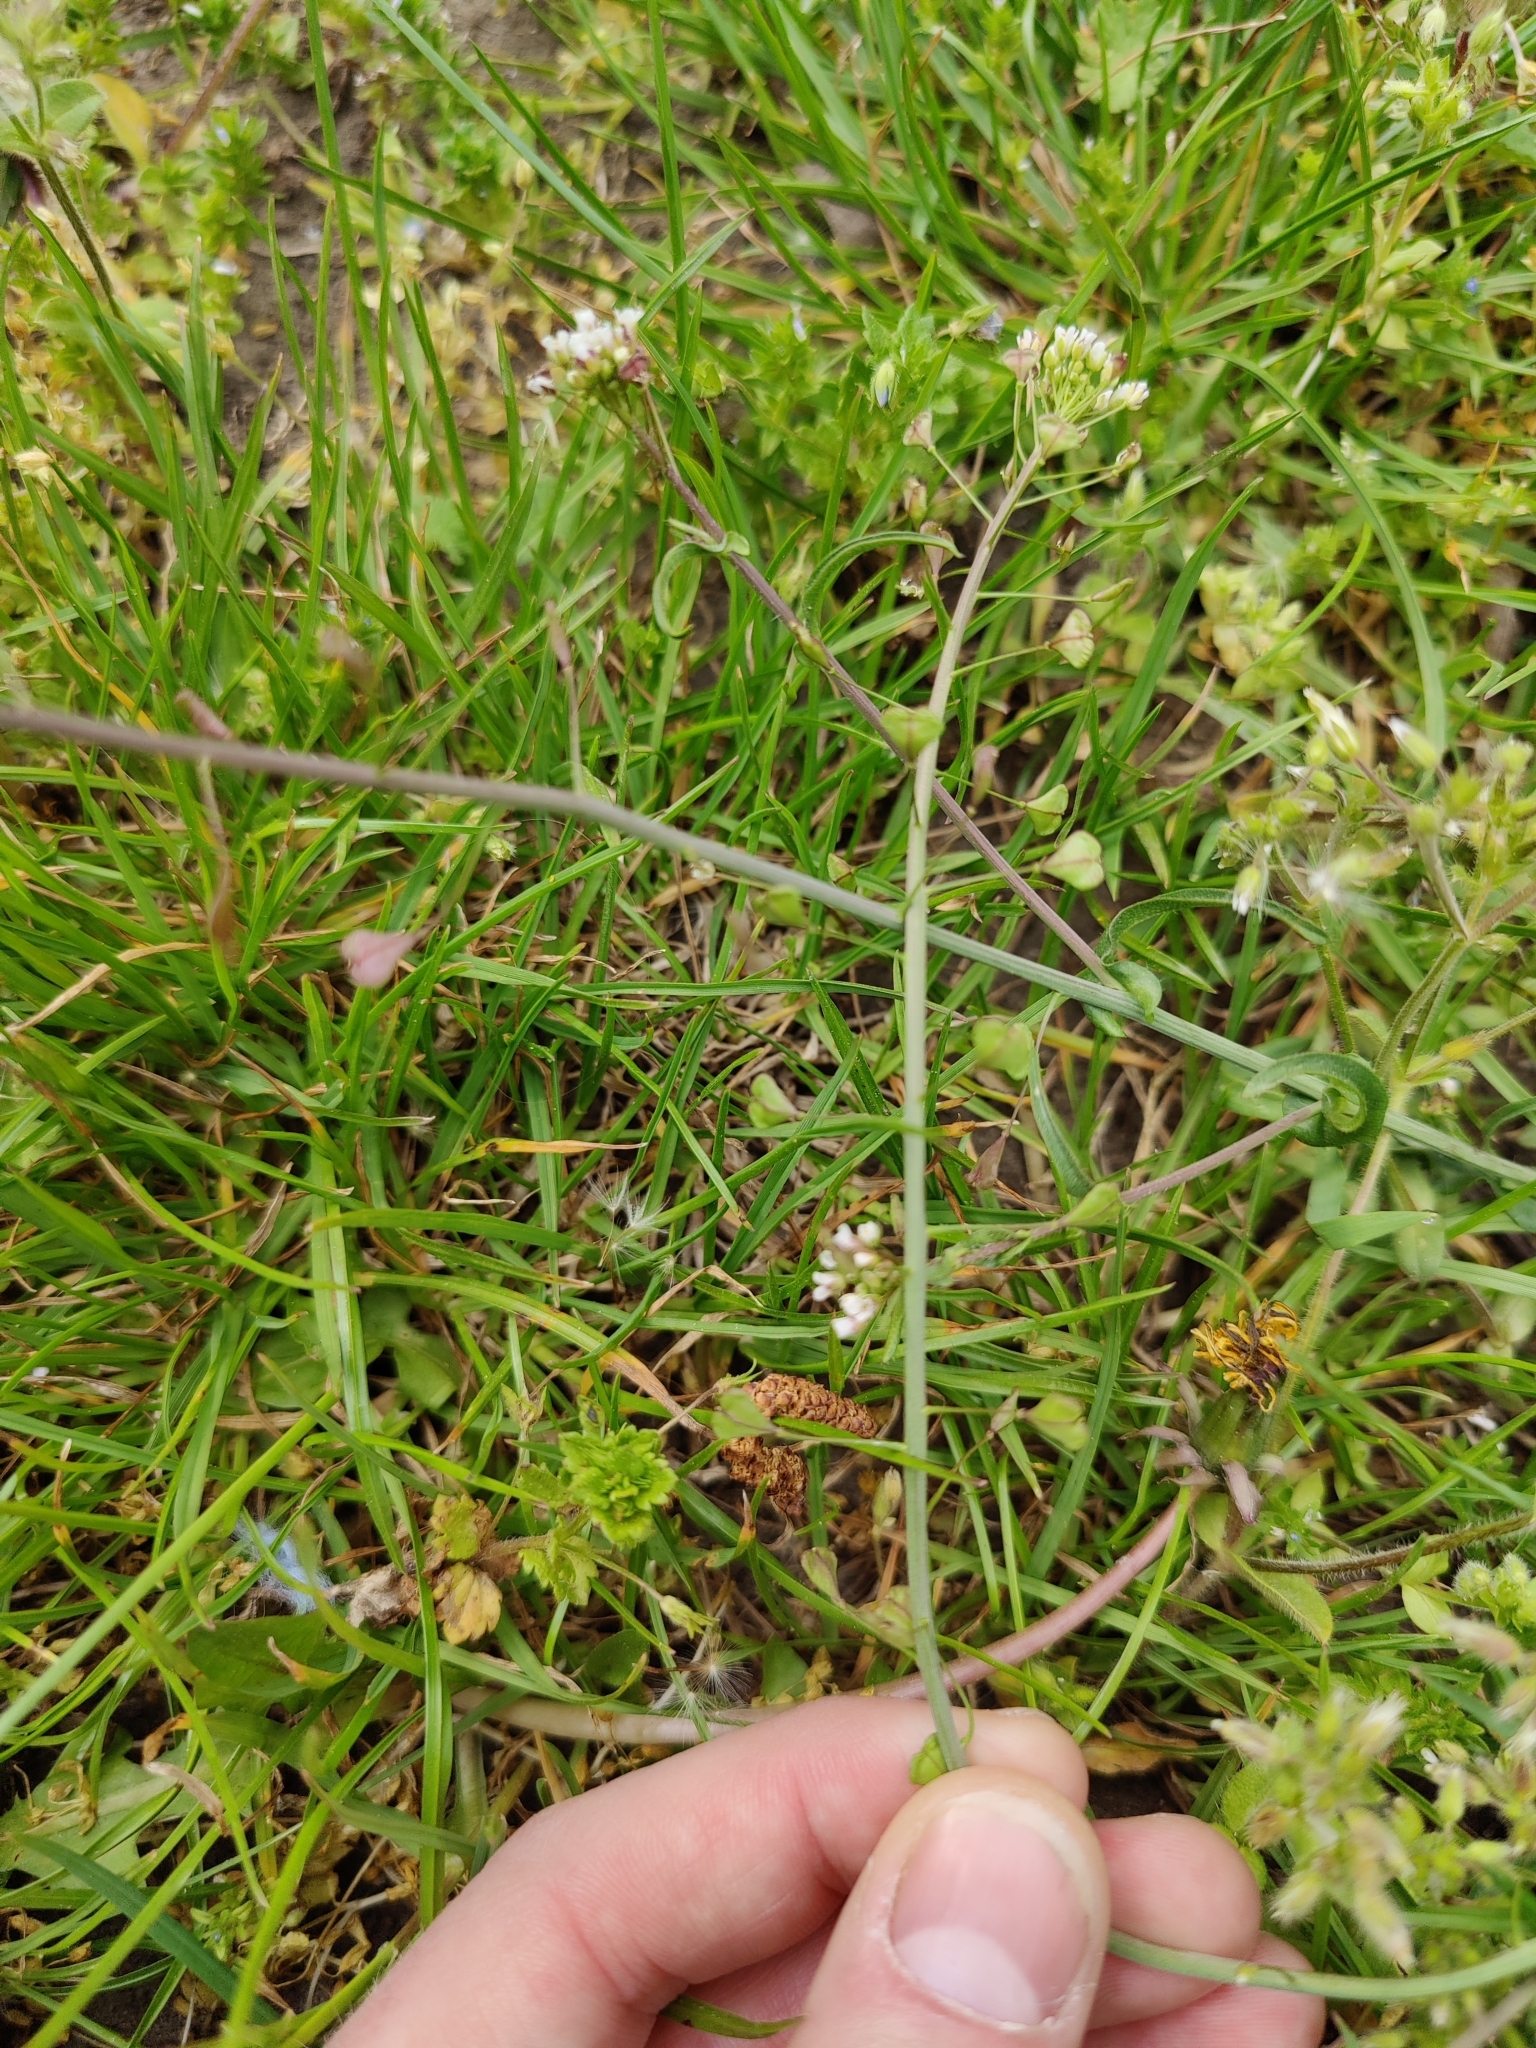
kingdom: Plantae
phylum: Tracheophyta
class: Magnoliopsida
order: Brassicales
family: Brassicaceae
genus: Capsella
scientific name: Capsella bursa-pastoris
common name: Shepherd's purse
